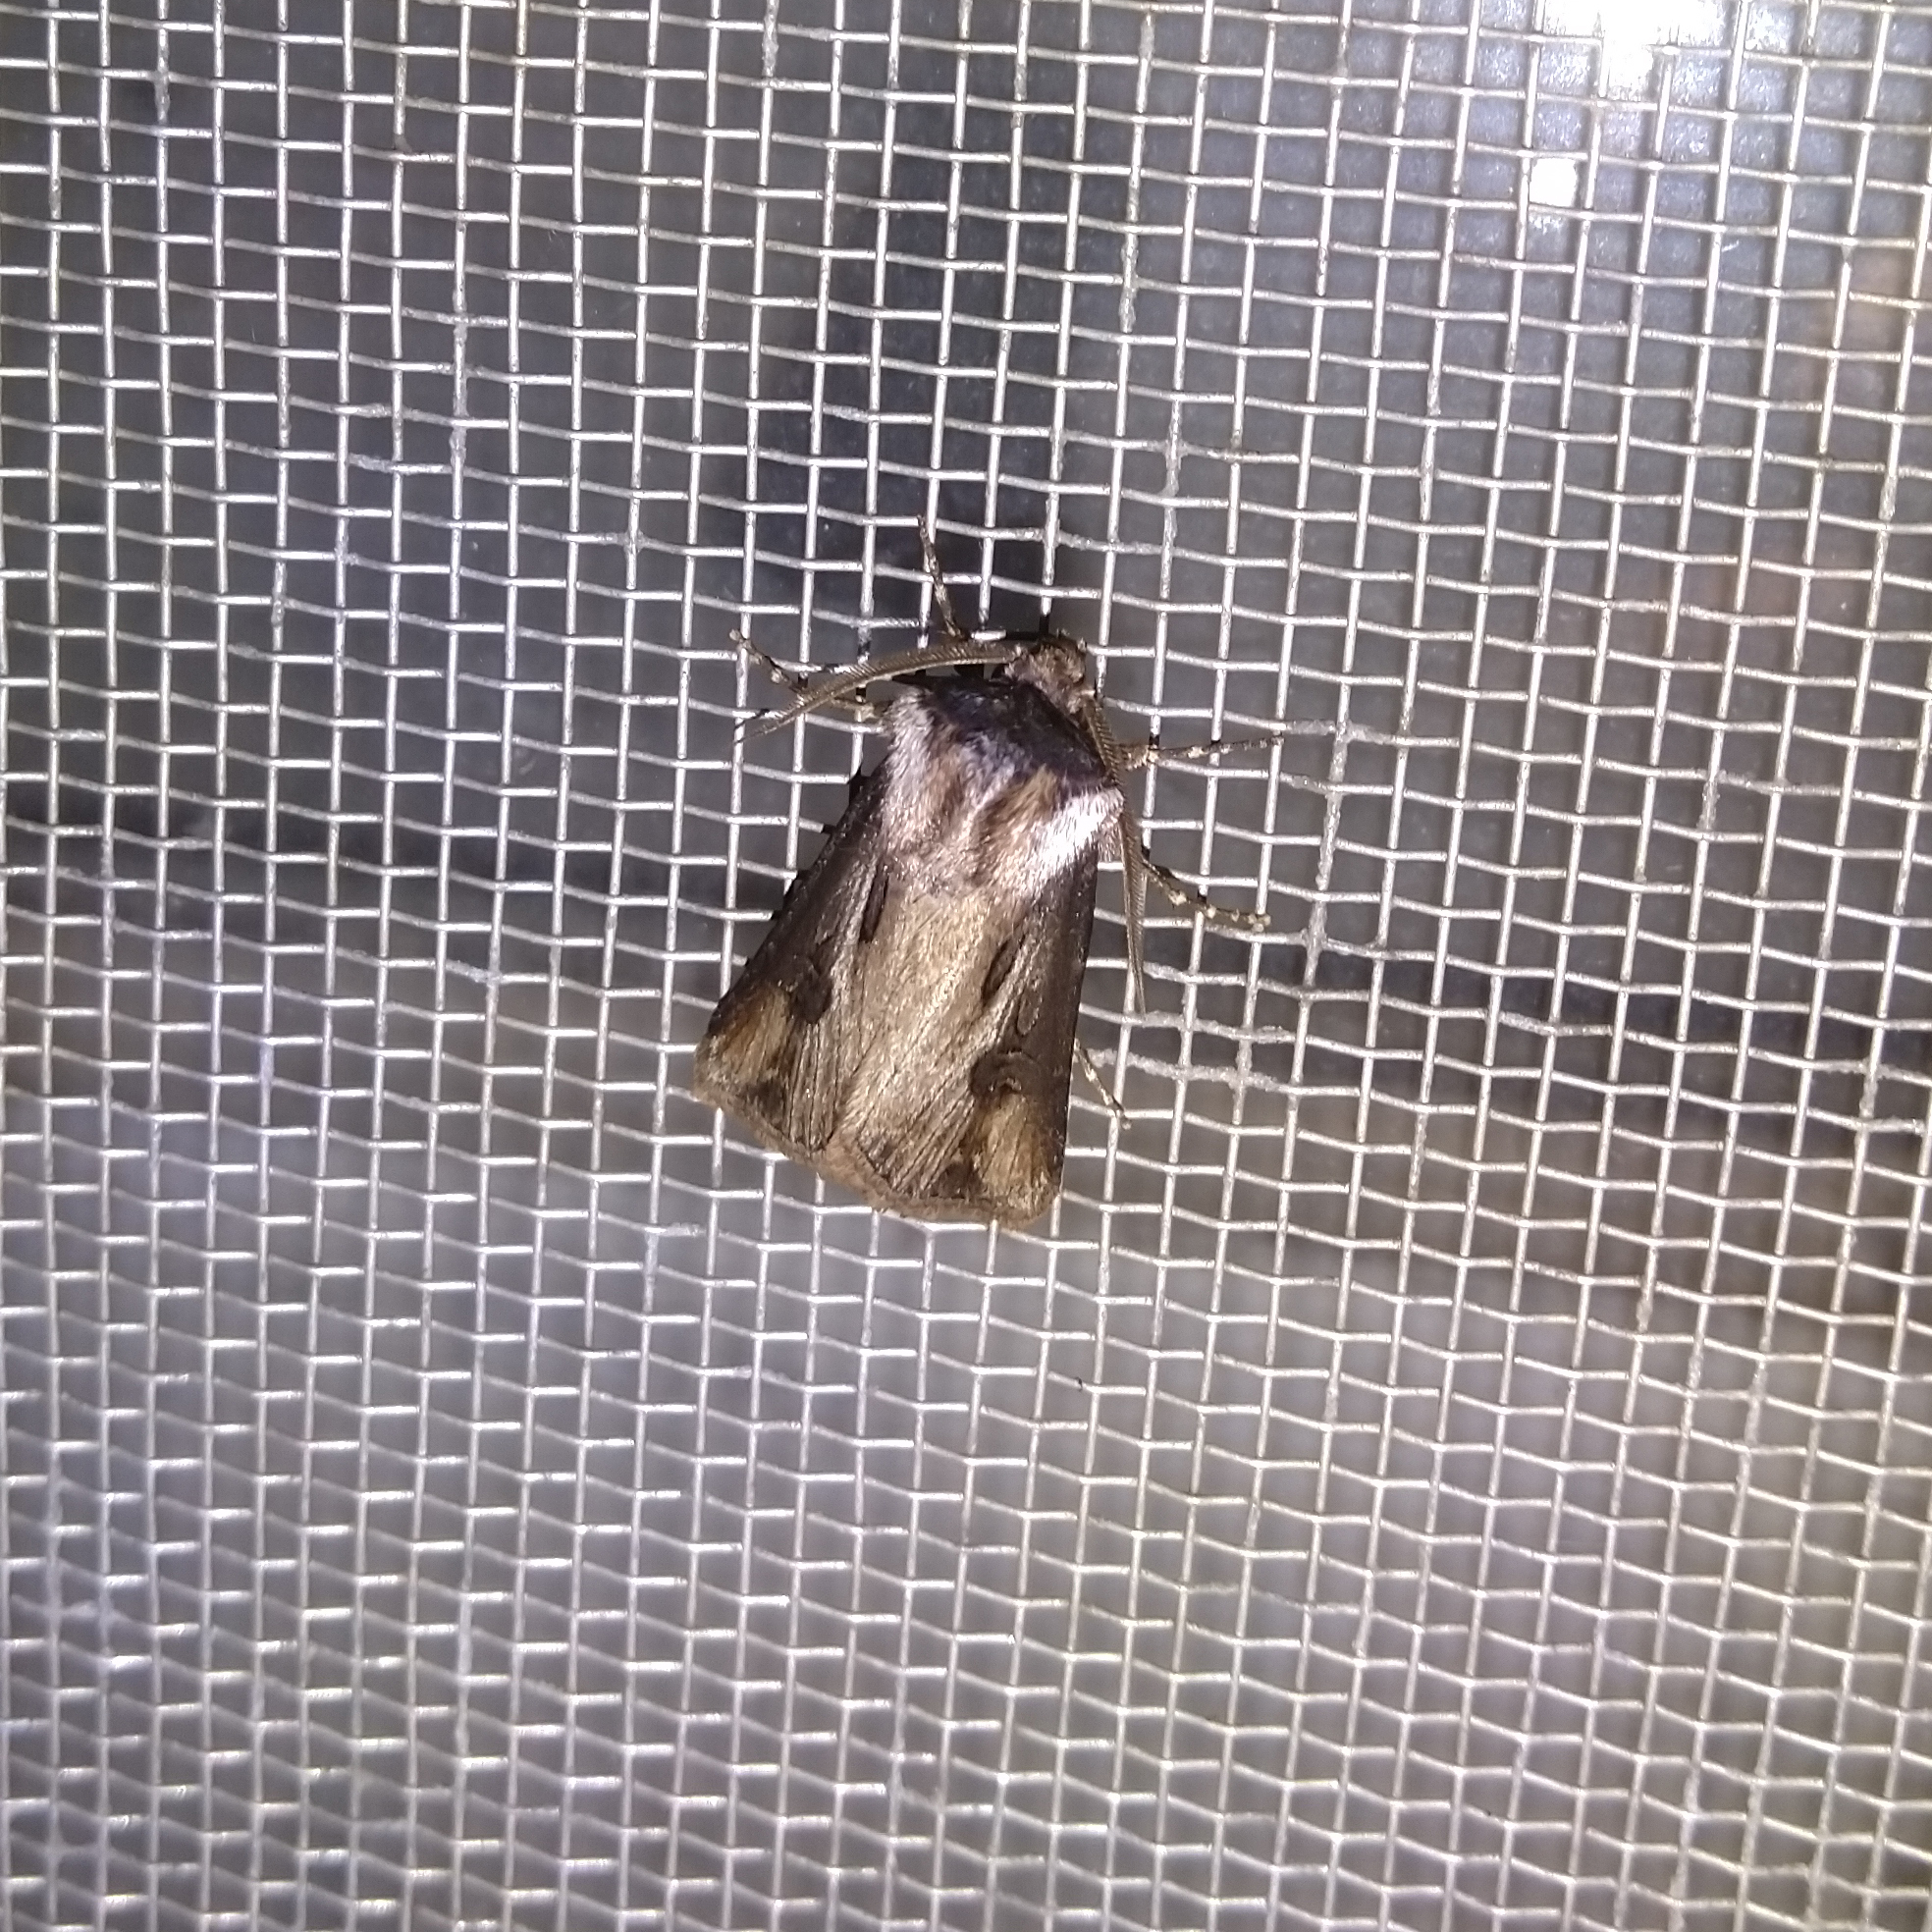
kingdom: Animalia
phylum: Arthropoda
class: Insecta
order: Lepidoptera
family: Noctuidae
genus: Agrotis
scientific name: Agrotis venerabilis
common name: Venerable dart
